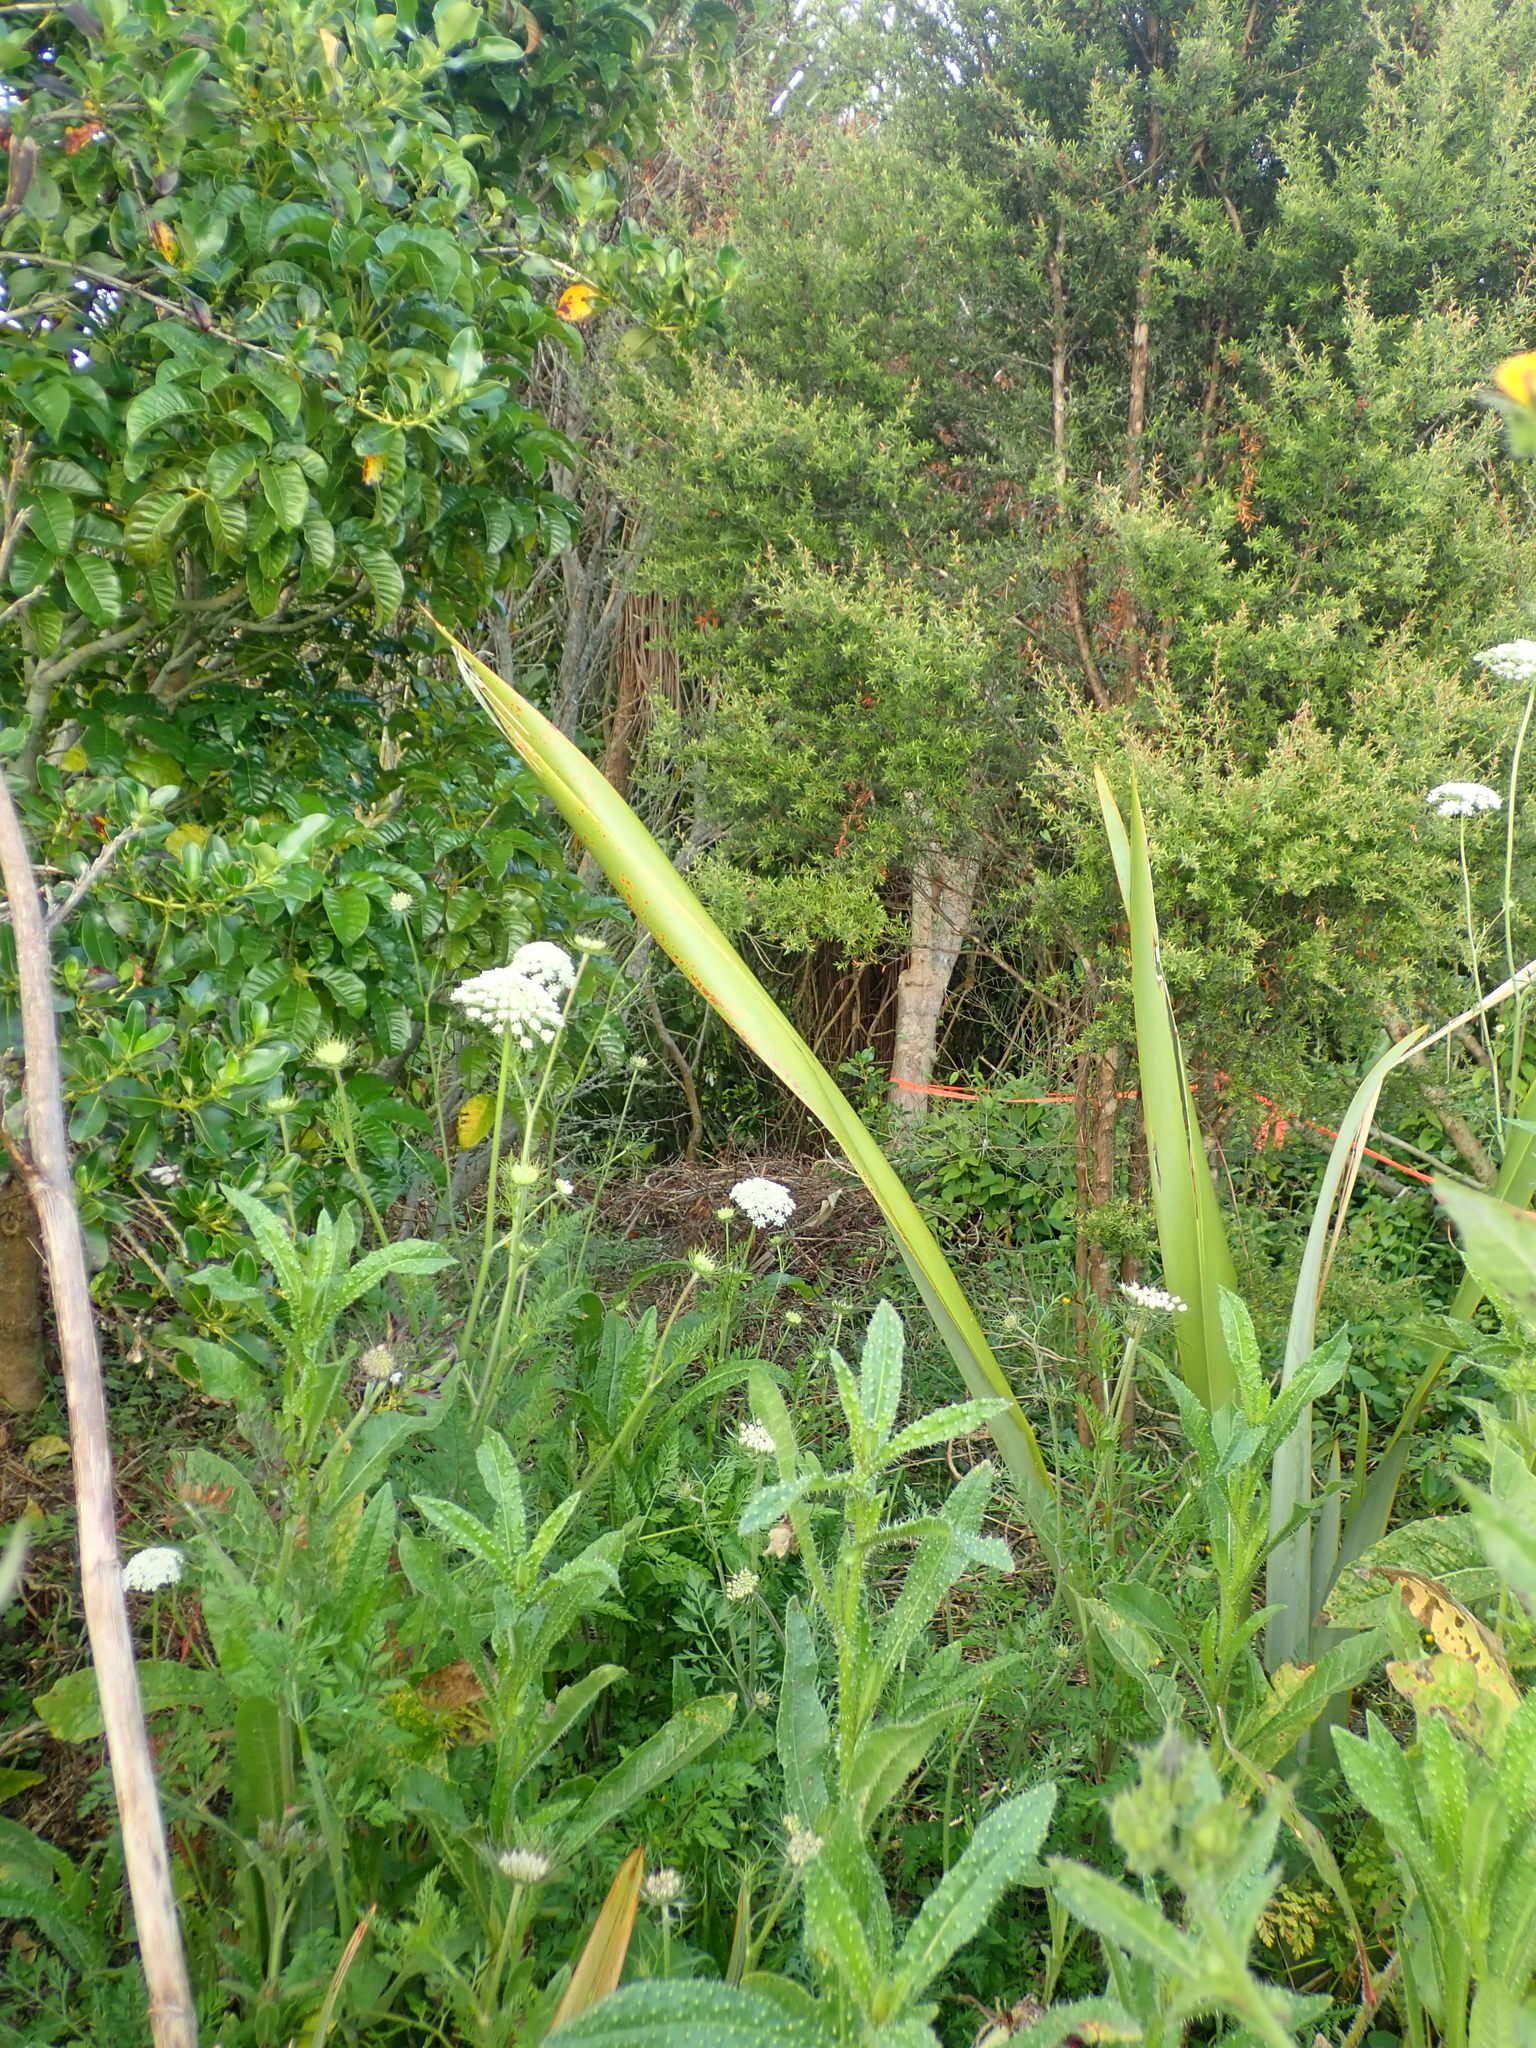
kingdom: Plantae
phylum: Tracheophyta
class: Magnoliopsida
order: Apiales
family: Apiaceae
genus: Daucus
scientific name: Daucus carota
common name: Wild carrot
